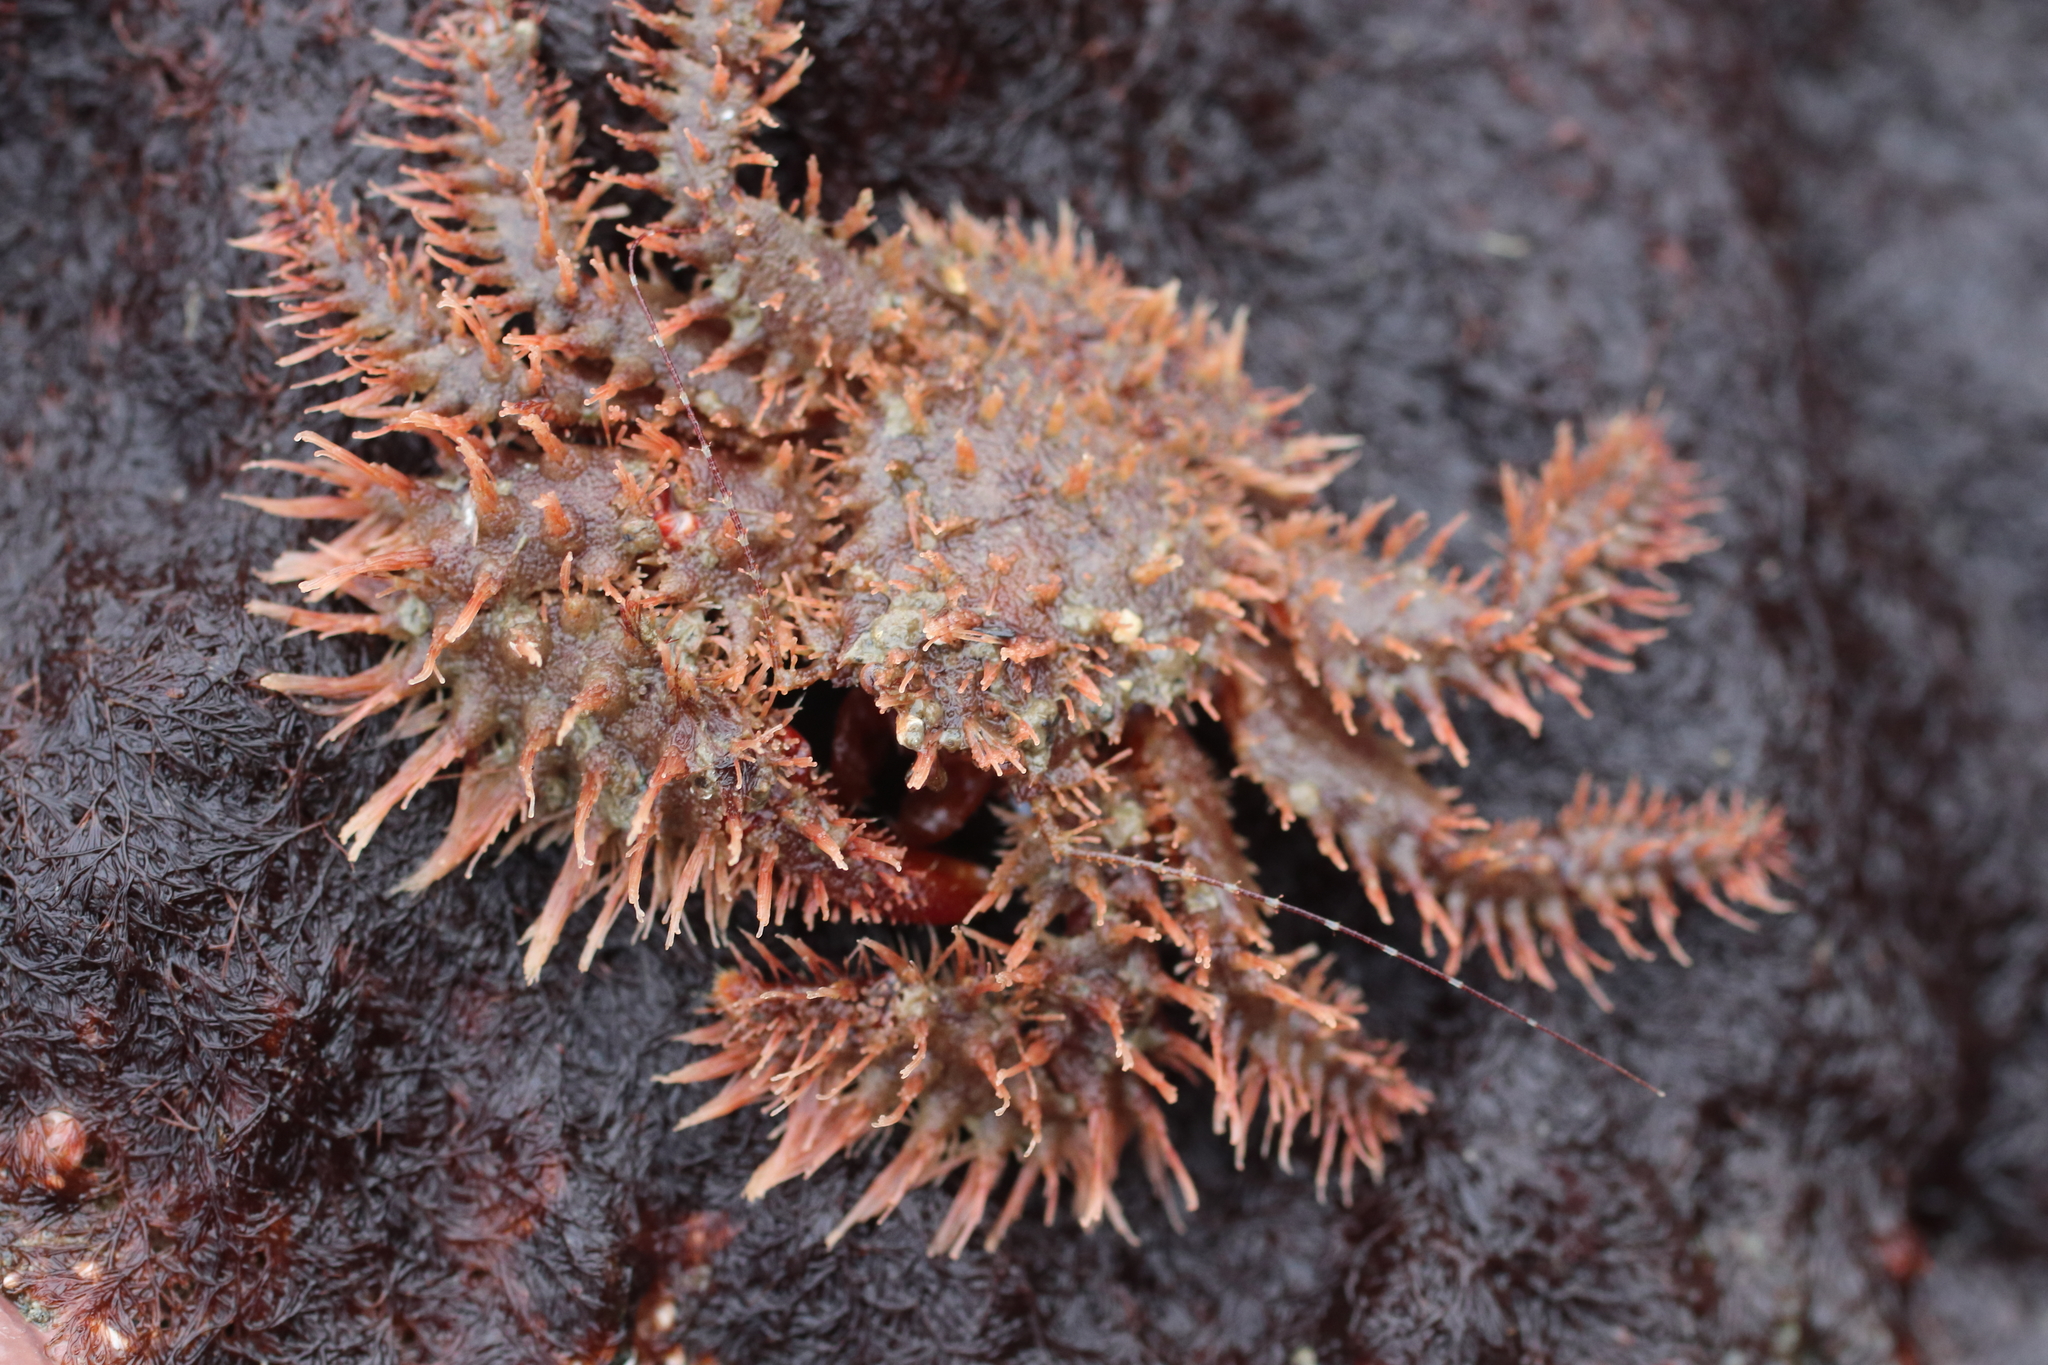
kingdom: Animalia
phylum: Arthropoda
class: Malacostraca
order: Decapoda
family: Hapalogastridae
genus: Hapalogaster
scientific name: Hapalogaster mertensii
